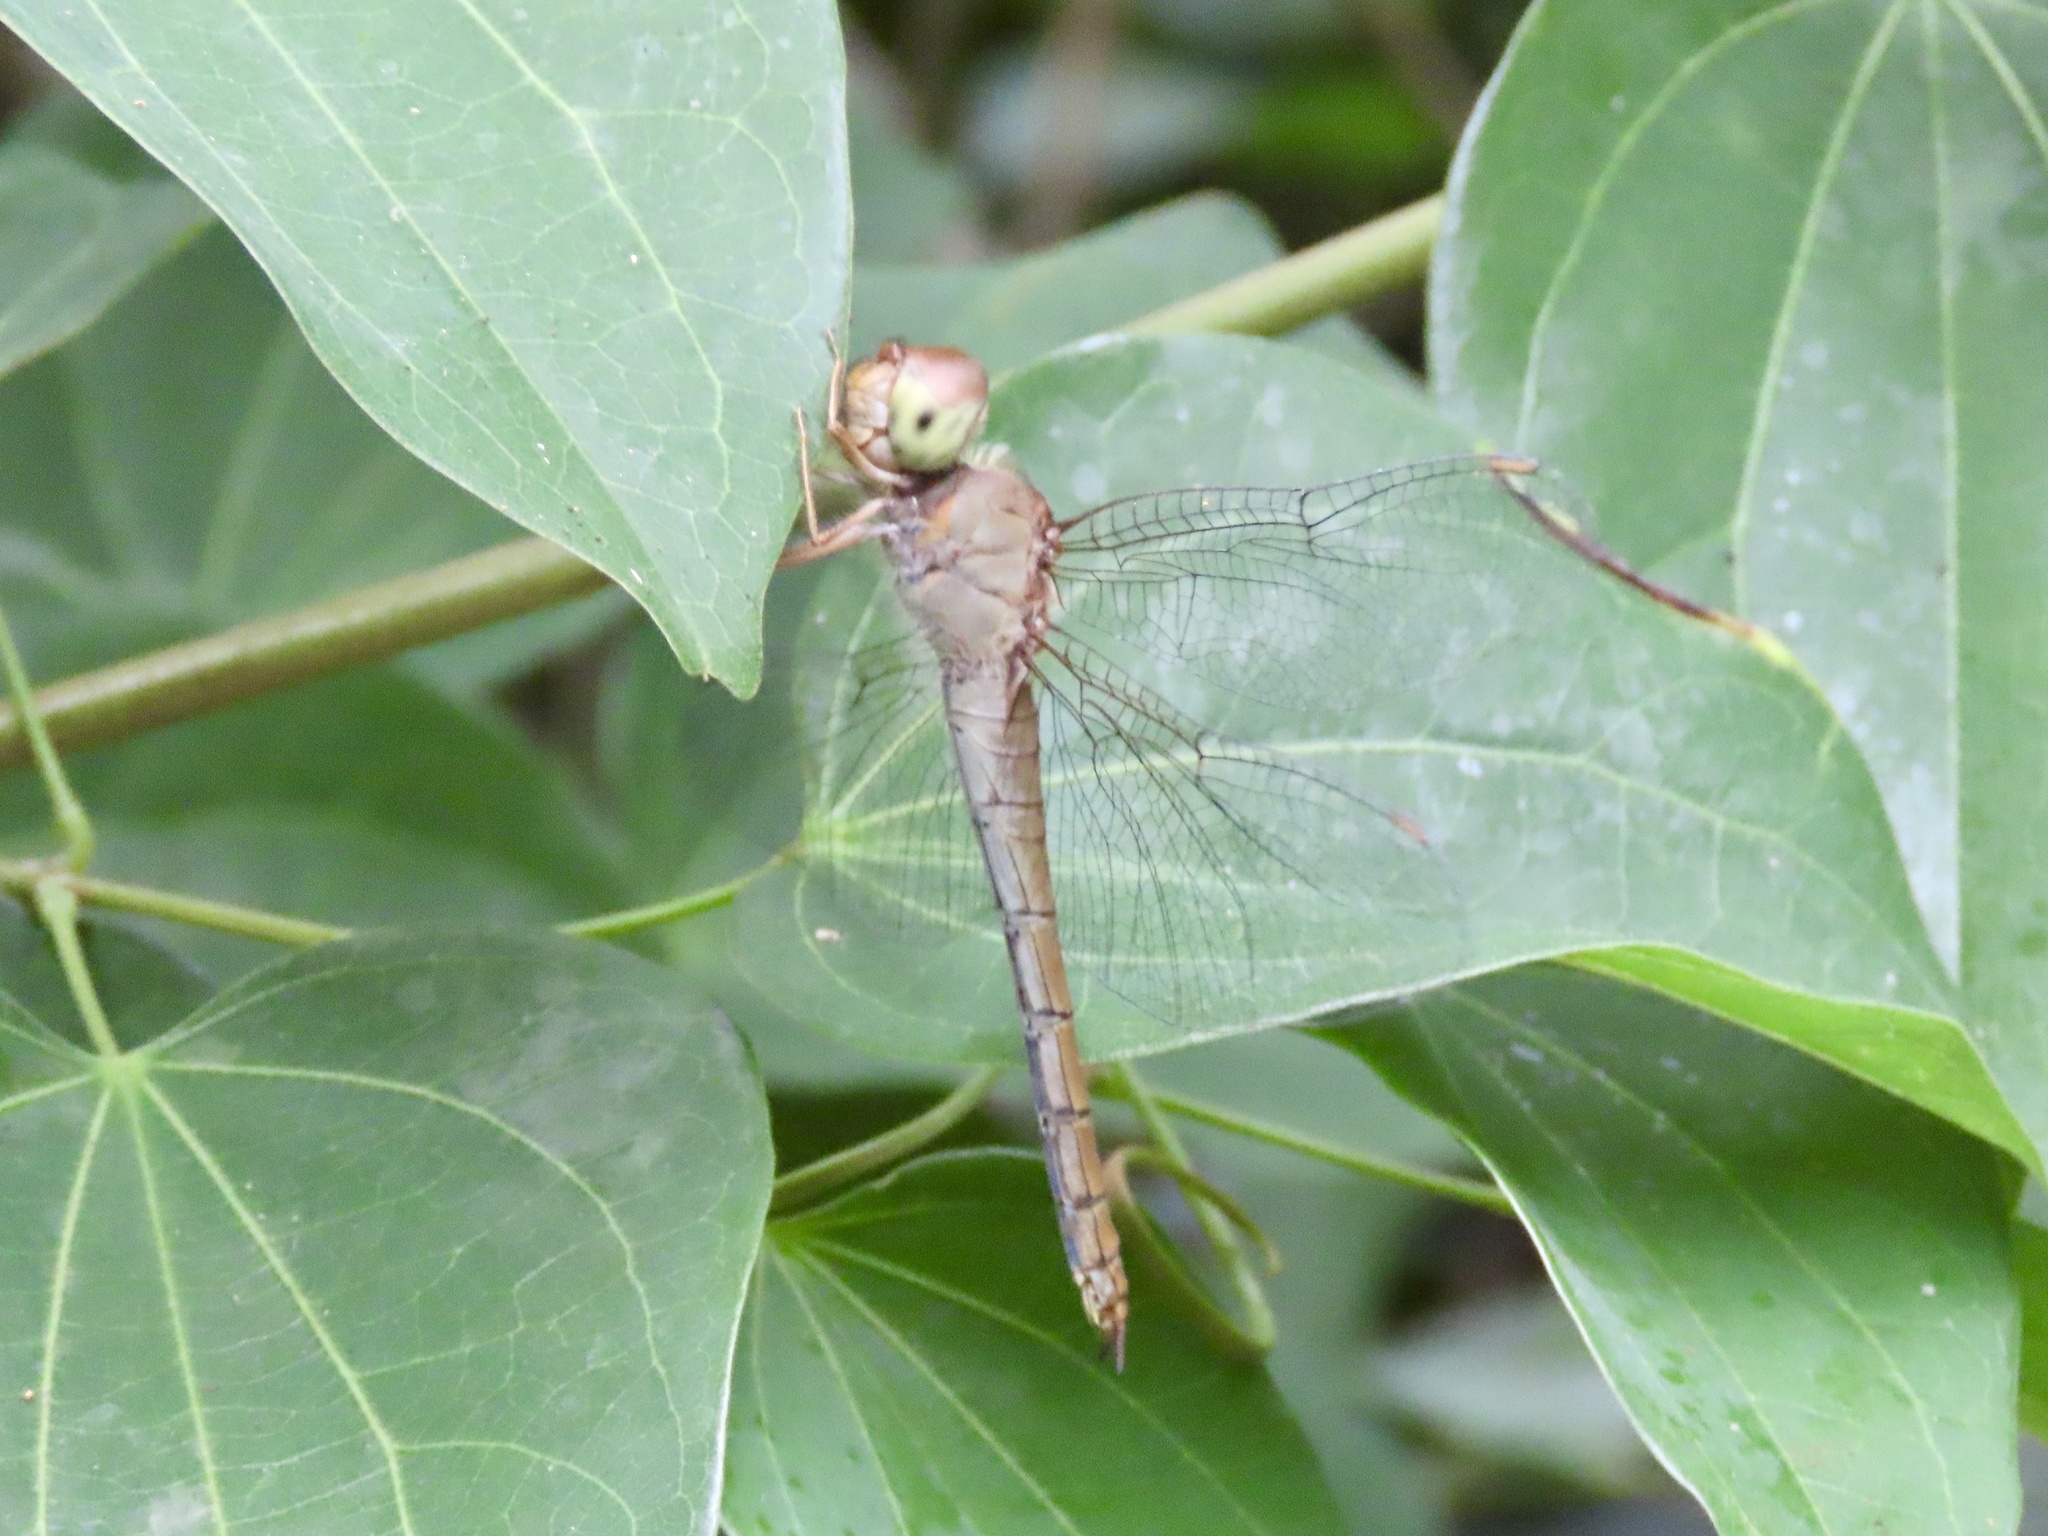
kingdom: Animalia
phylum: Arthropoda
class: Insecta
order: Odonata
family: Libellulidae
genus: Tholymis
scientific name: Tholymis tillarga
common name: Coral-tailed cloud wing
